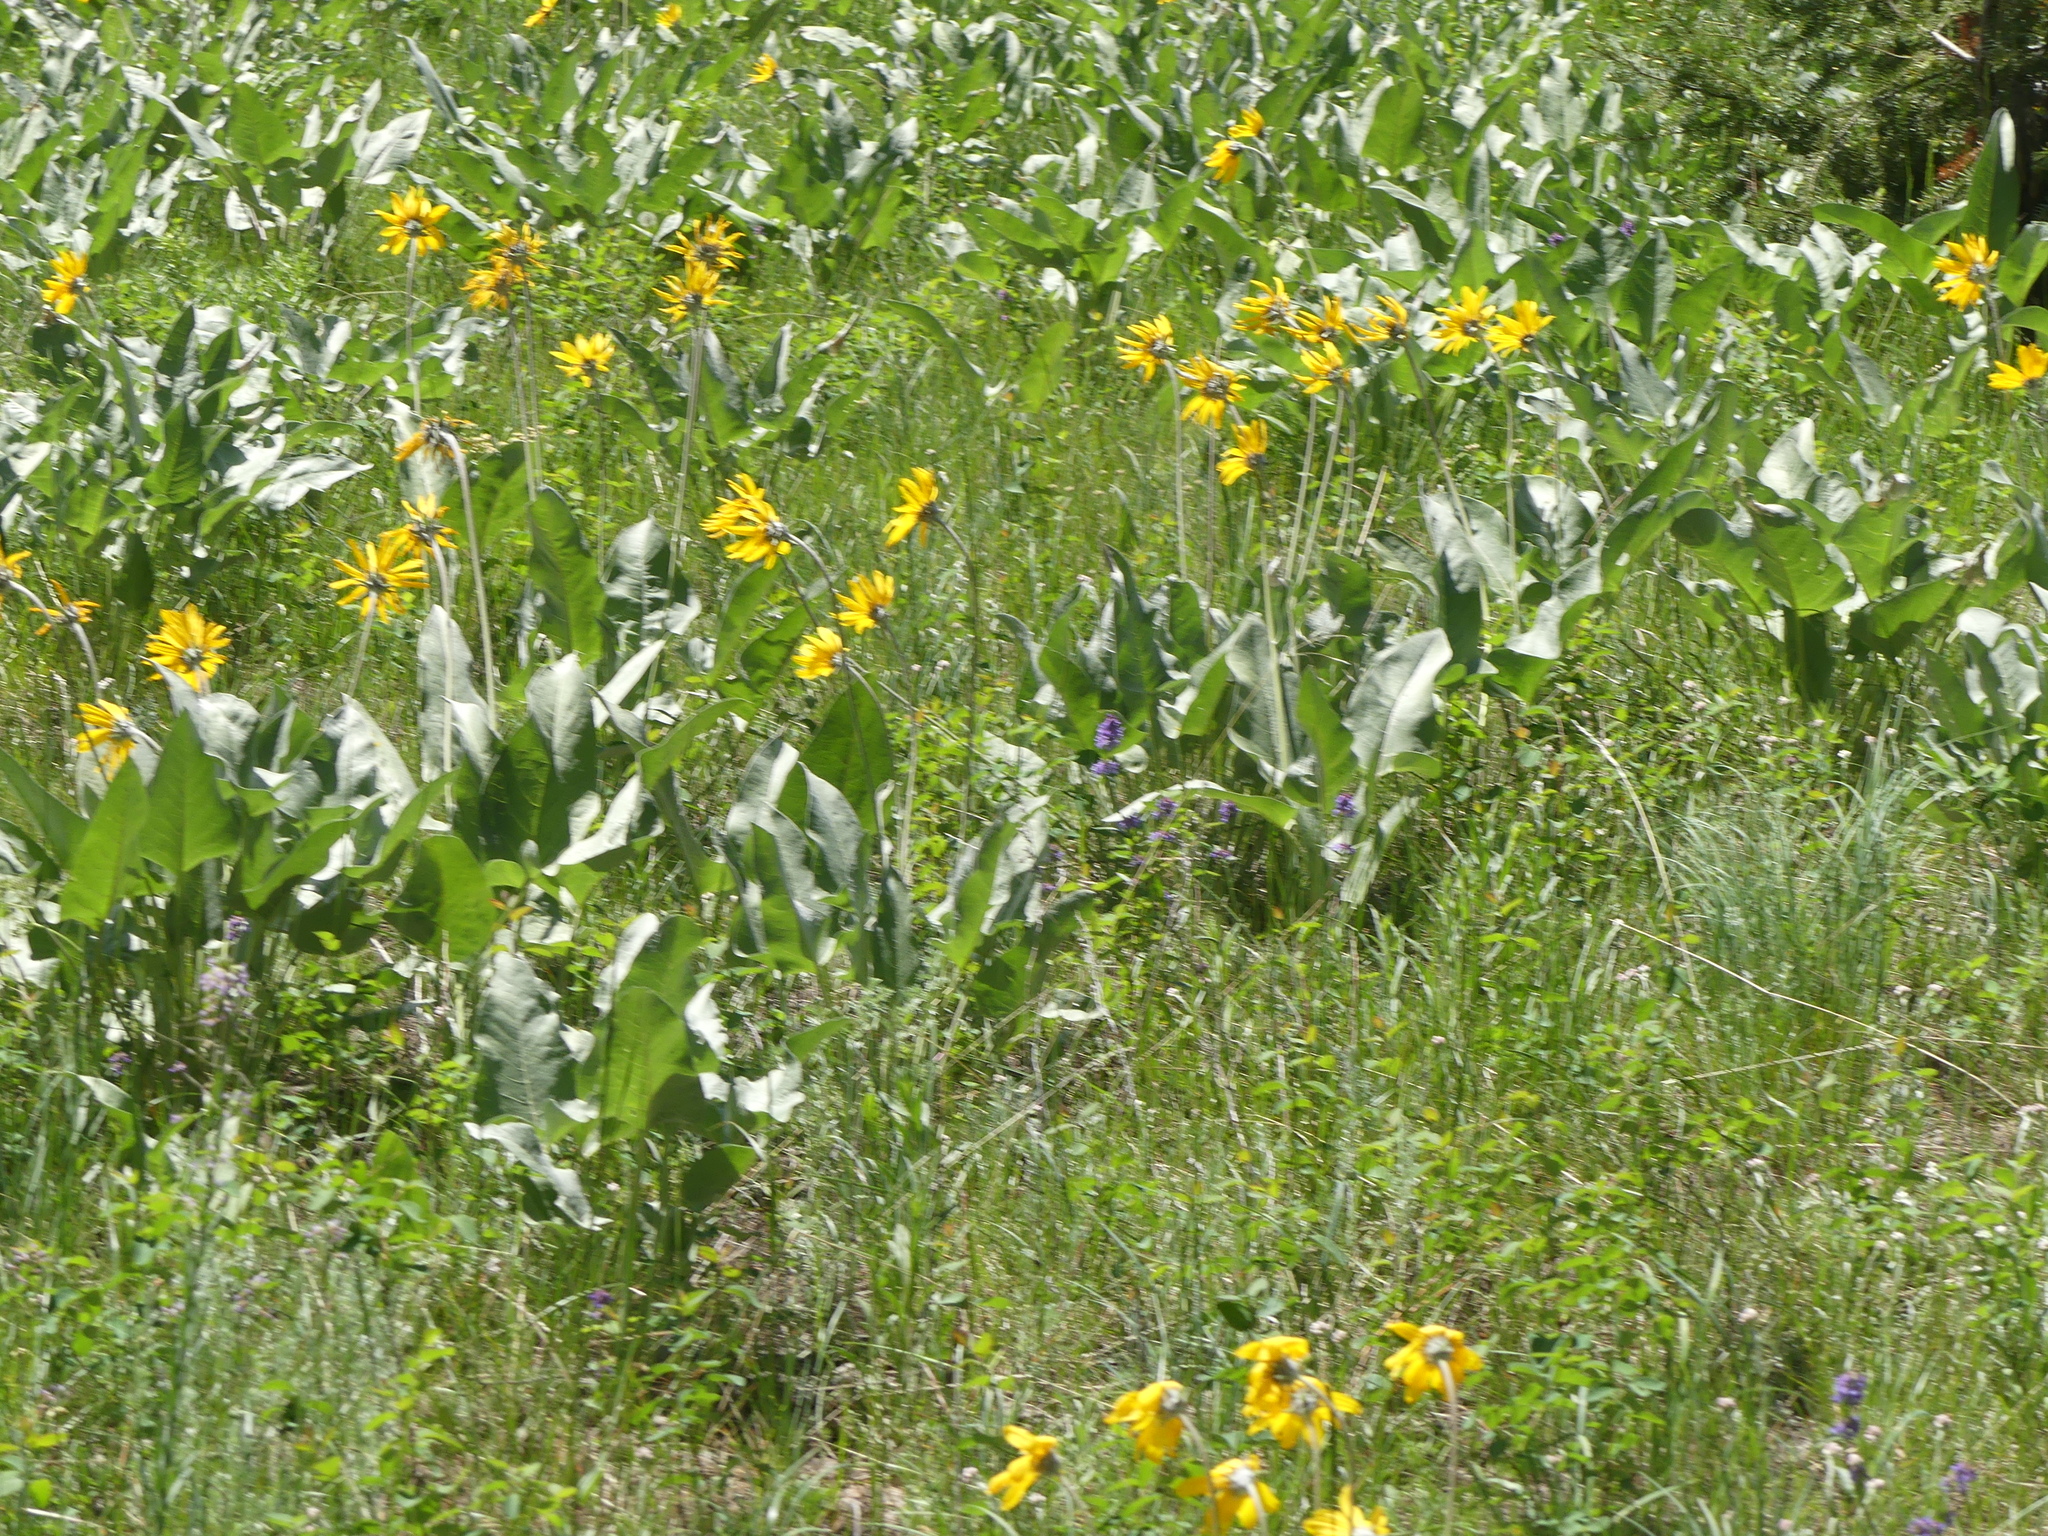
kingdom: Plantae
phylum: Tracheophyta
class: Magnoliopsida
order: Asterales
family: Asteraceae
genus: Wyethia
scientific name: Wyethia sagittata
